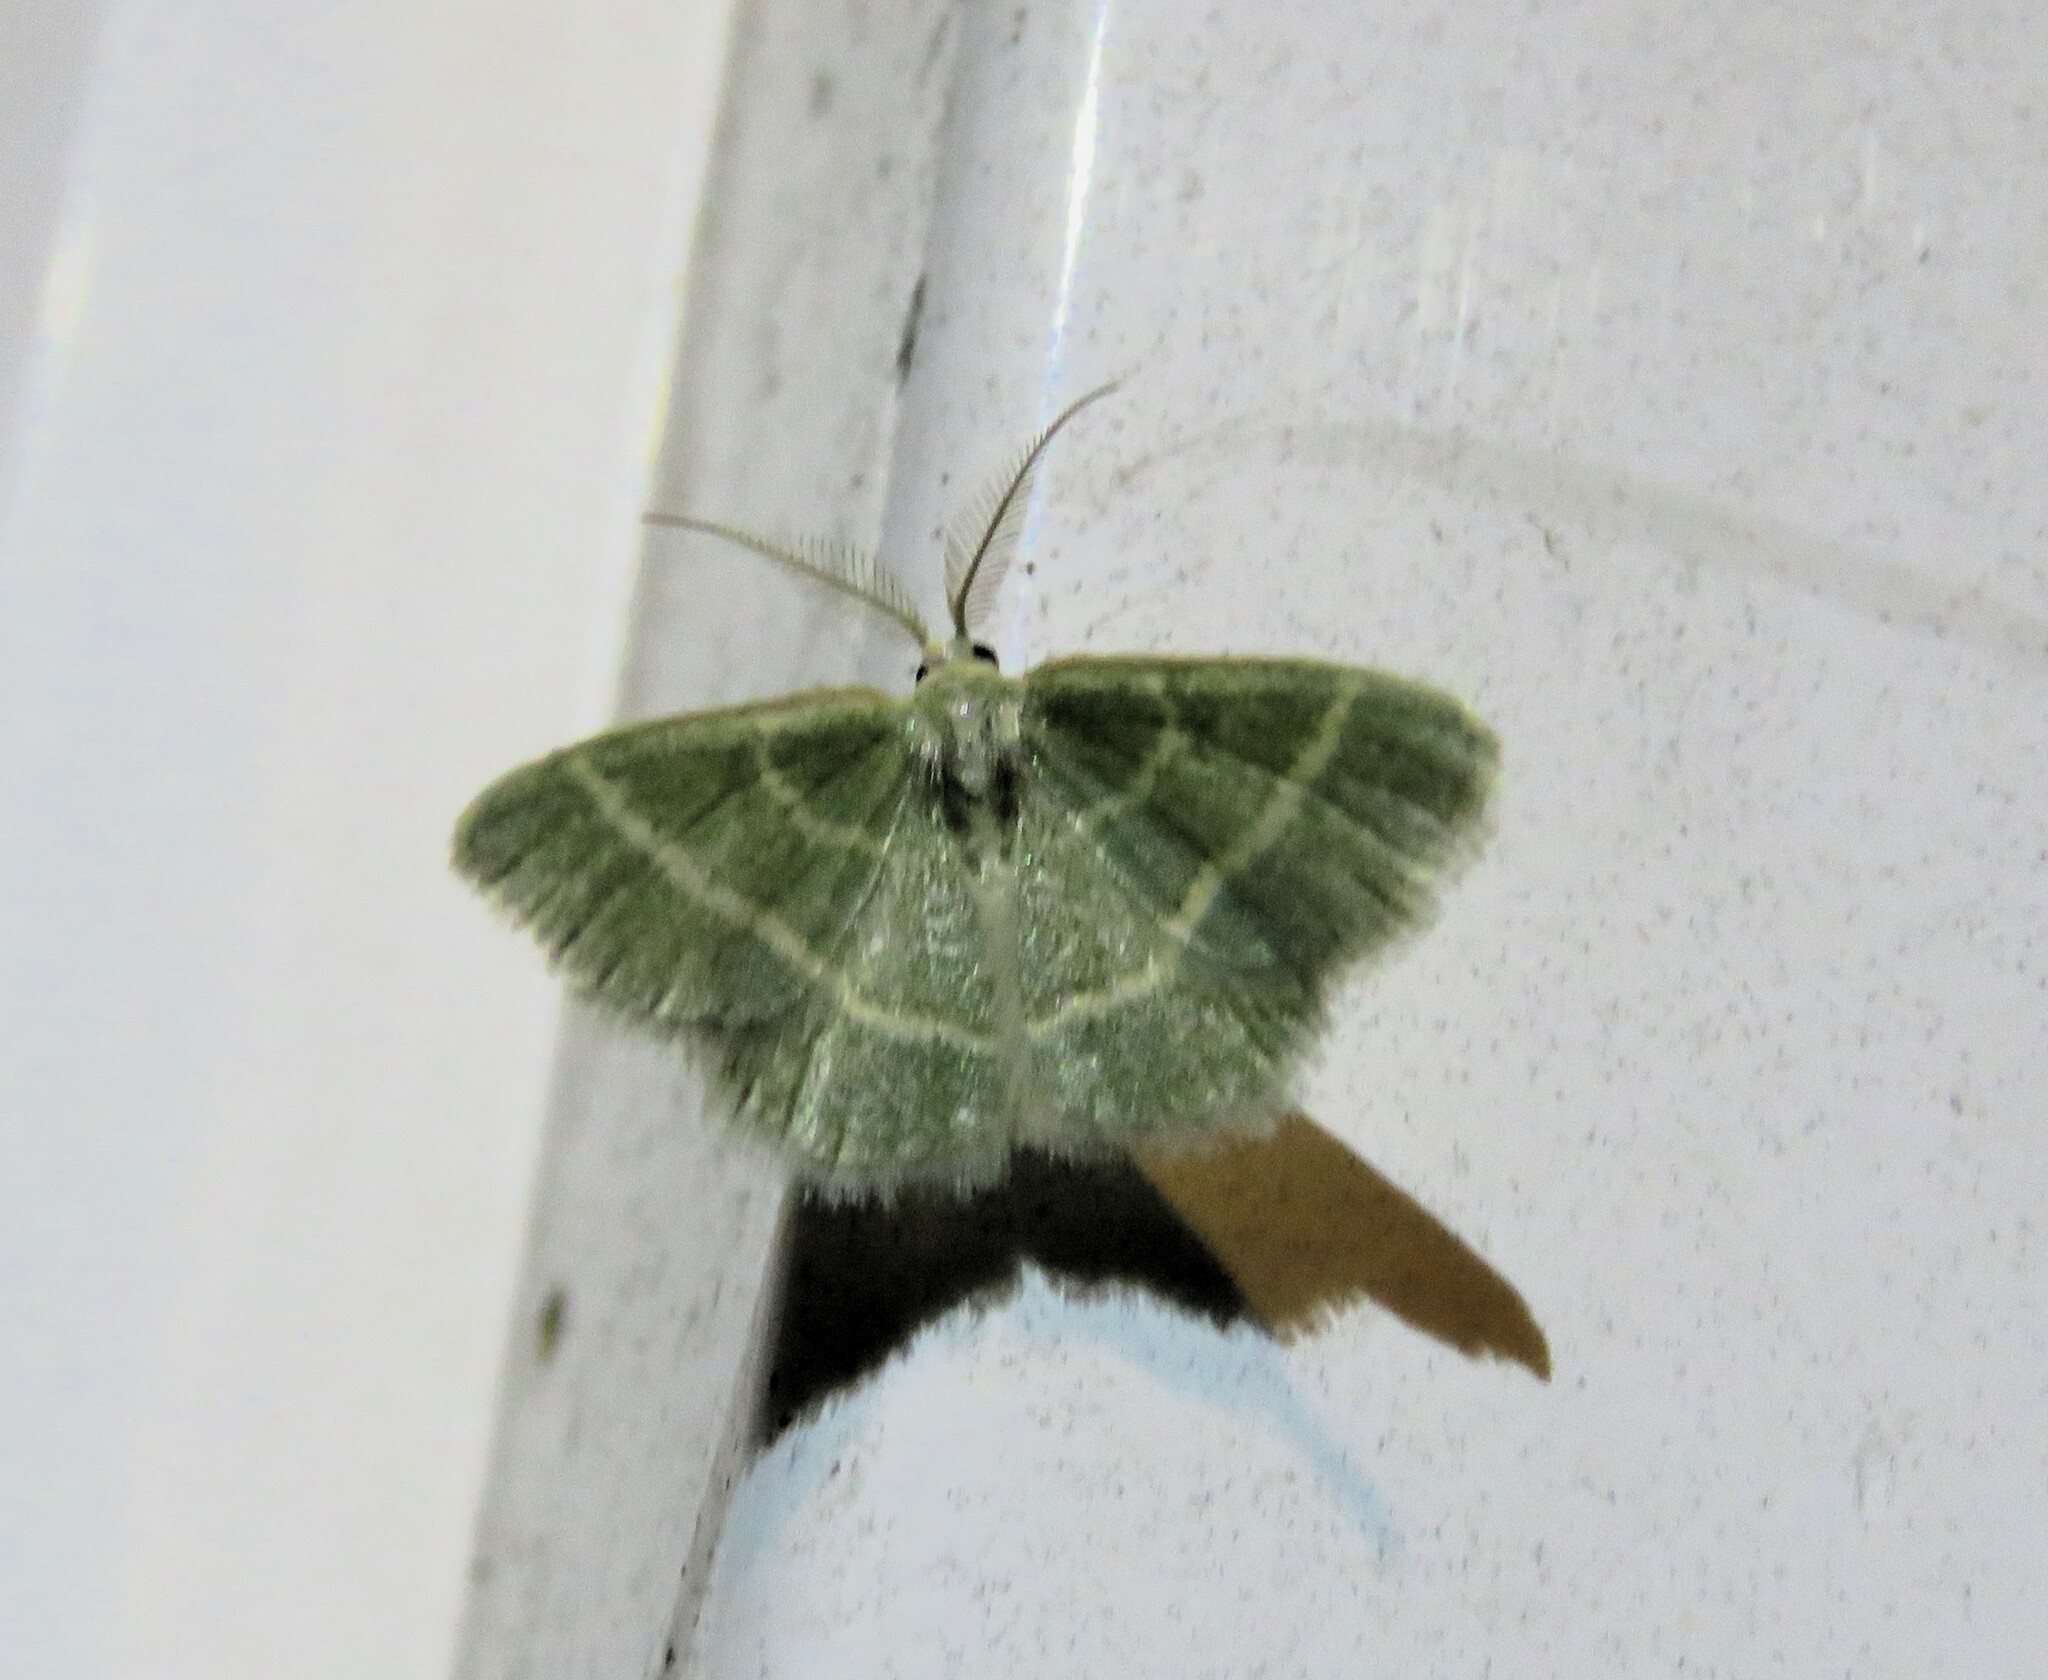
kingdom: Animalia
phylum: Arthropoda
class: Insecta
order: Lepidoptera
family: Geometridae
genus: Chlorochlamys
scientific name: Chlorochlamys chloroleucaria
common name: Blackberry looper
